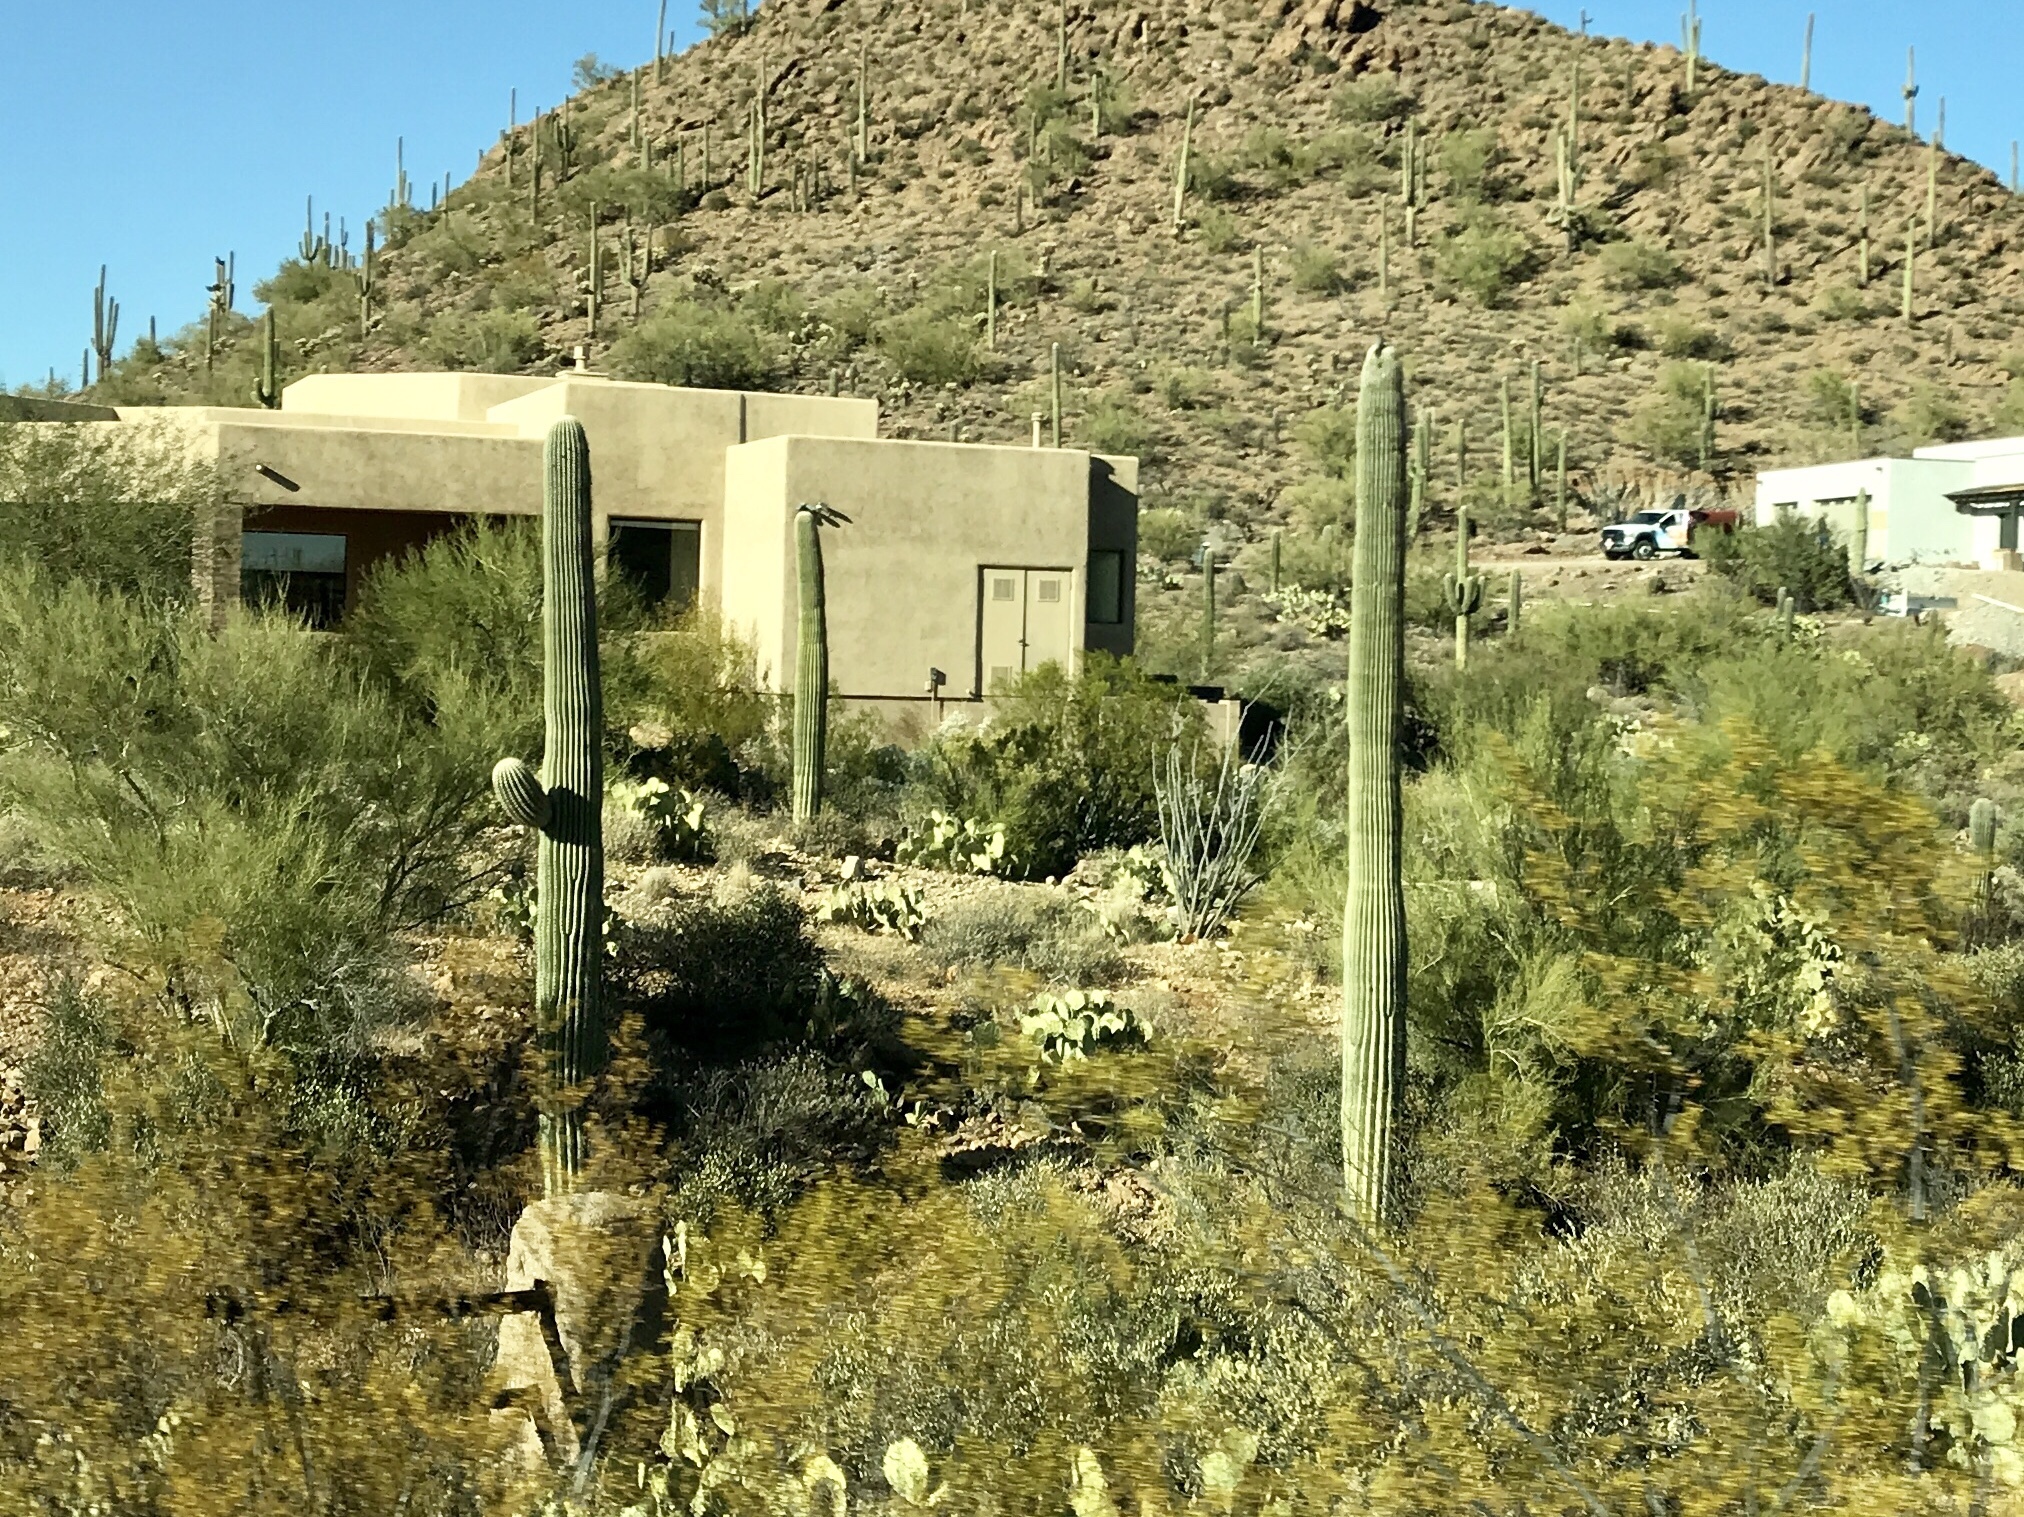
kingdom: Plantae
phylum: Tracheophyta
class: Magnoliopsida
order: Caryophyllales
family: Cactaceae
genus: Carnegiea
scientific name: Carnegiea gigantea
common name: Saguaro
